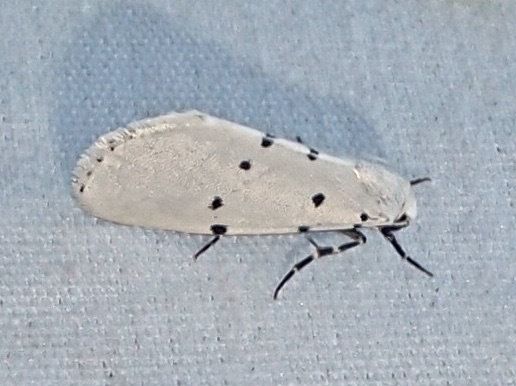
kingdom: Animalia
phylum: Arthropoda
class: Insecta
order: Lepidoptera
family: Noctuidae
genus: Grotella
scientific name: Grotella sampita
